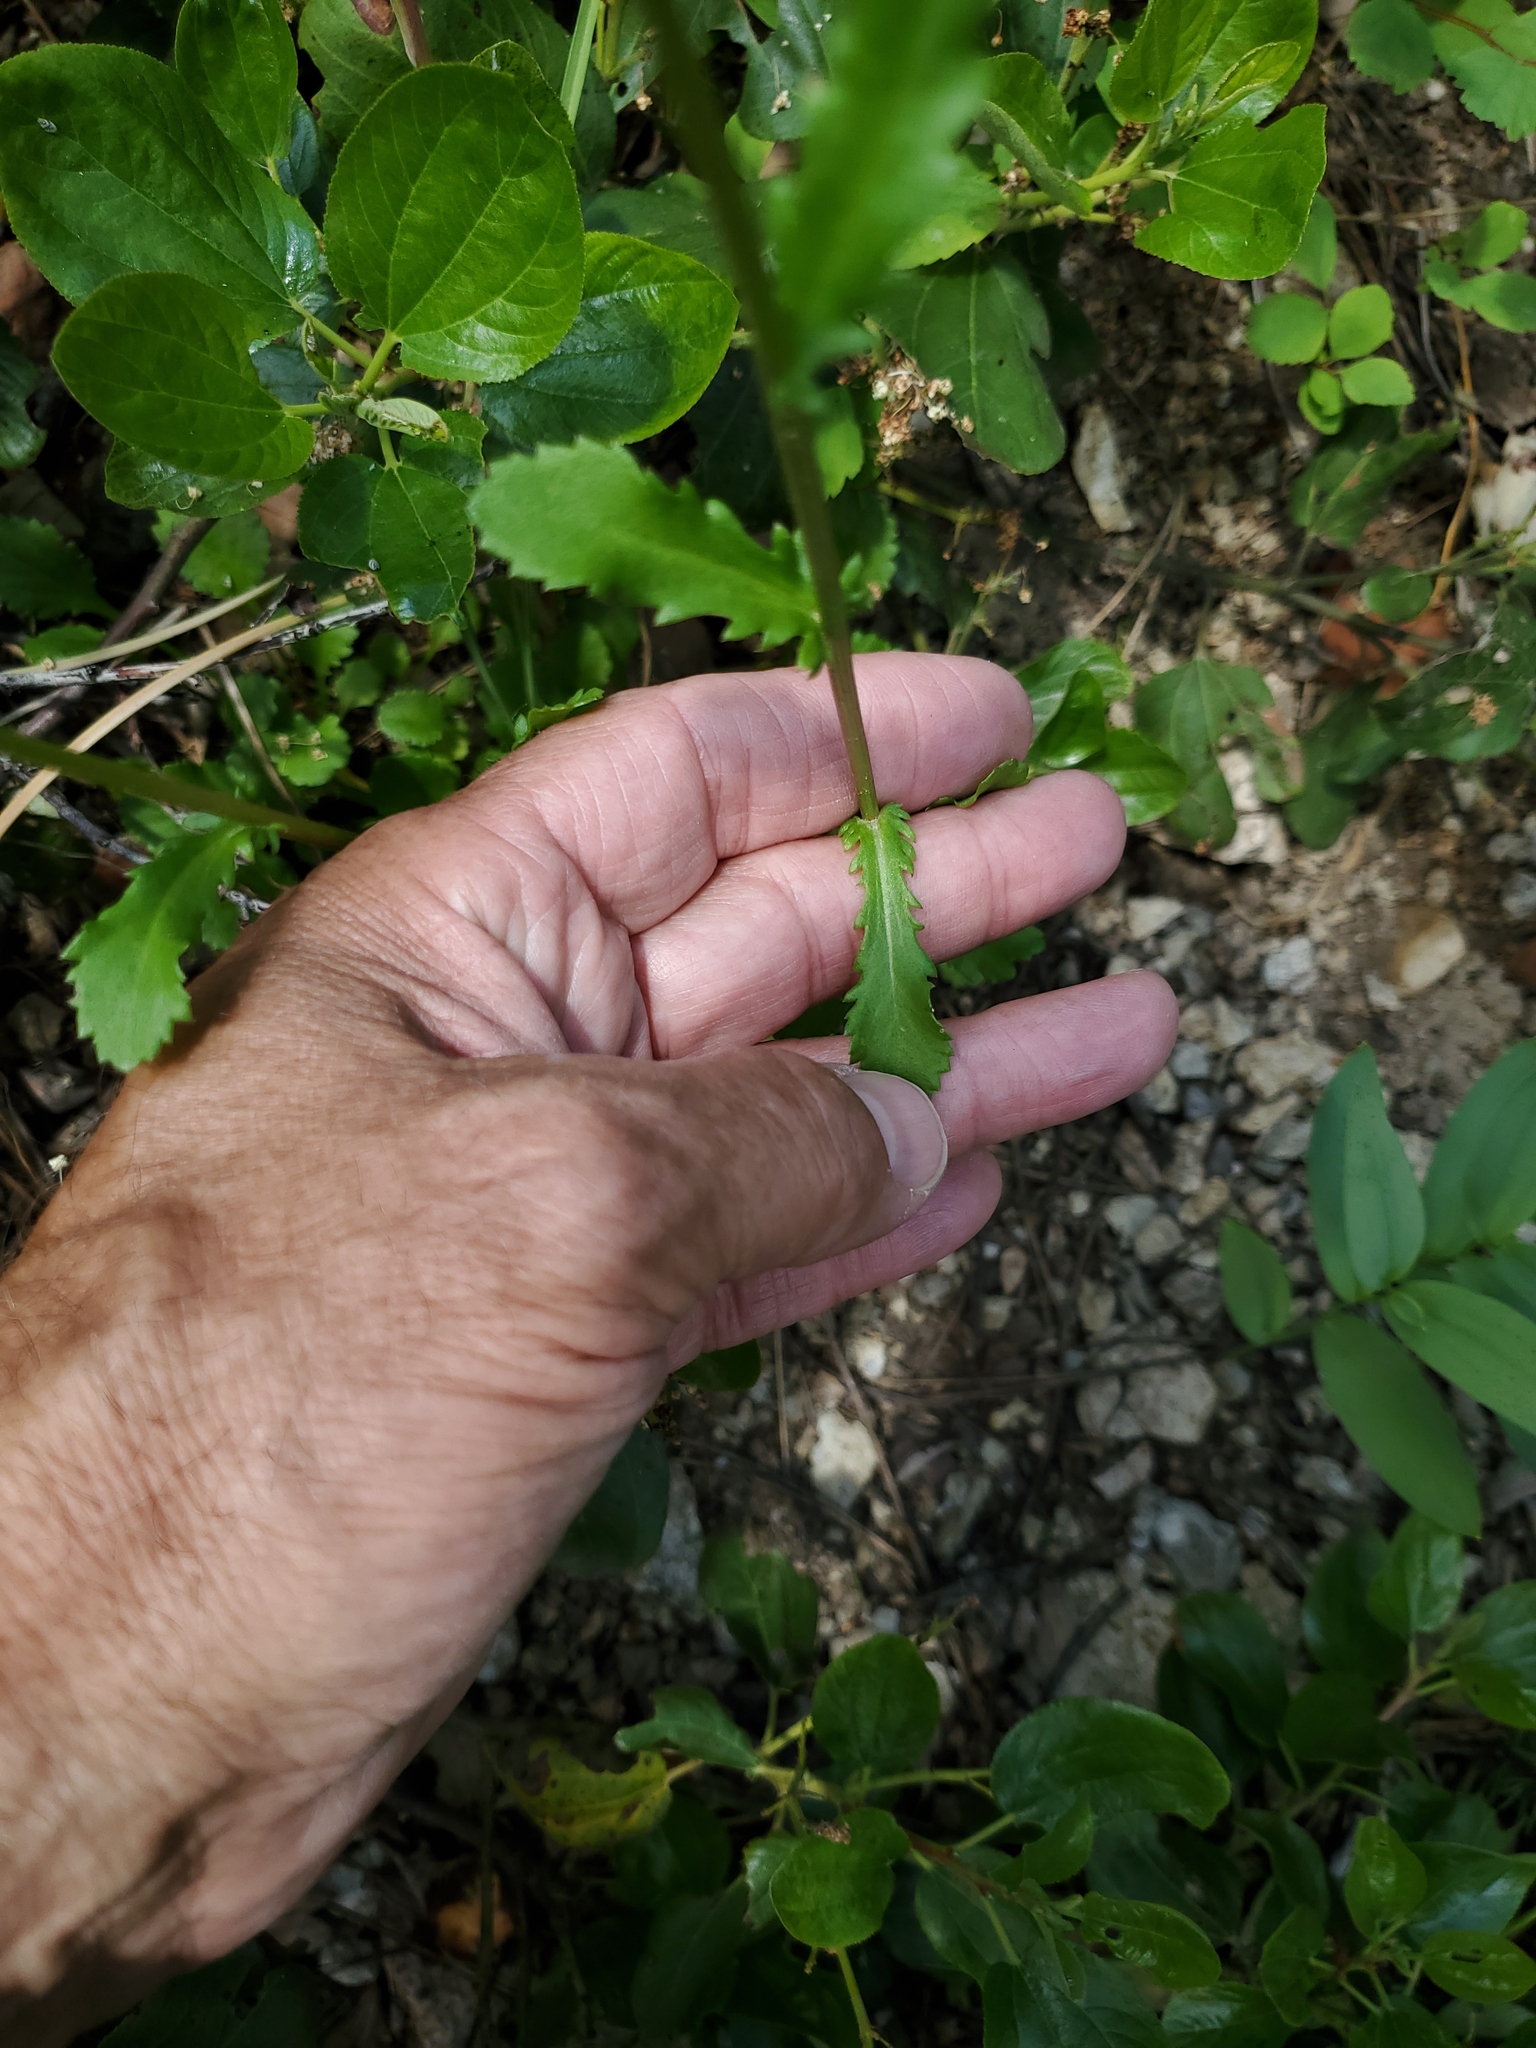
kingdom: Plantae
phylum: Tracheophyta
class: Magnoliopsida
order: Asterales
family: Asteraceae
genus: Leucanthemum
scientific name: Leucanthemum vulgare
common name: Oxeye daisy
